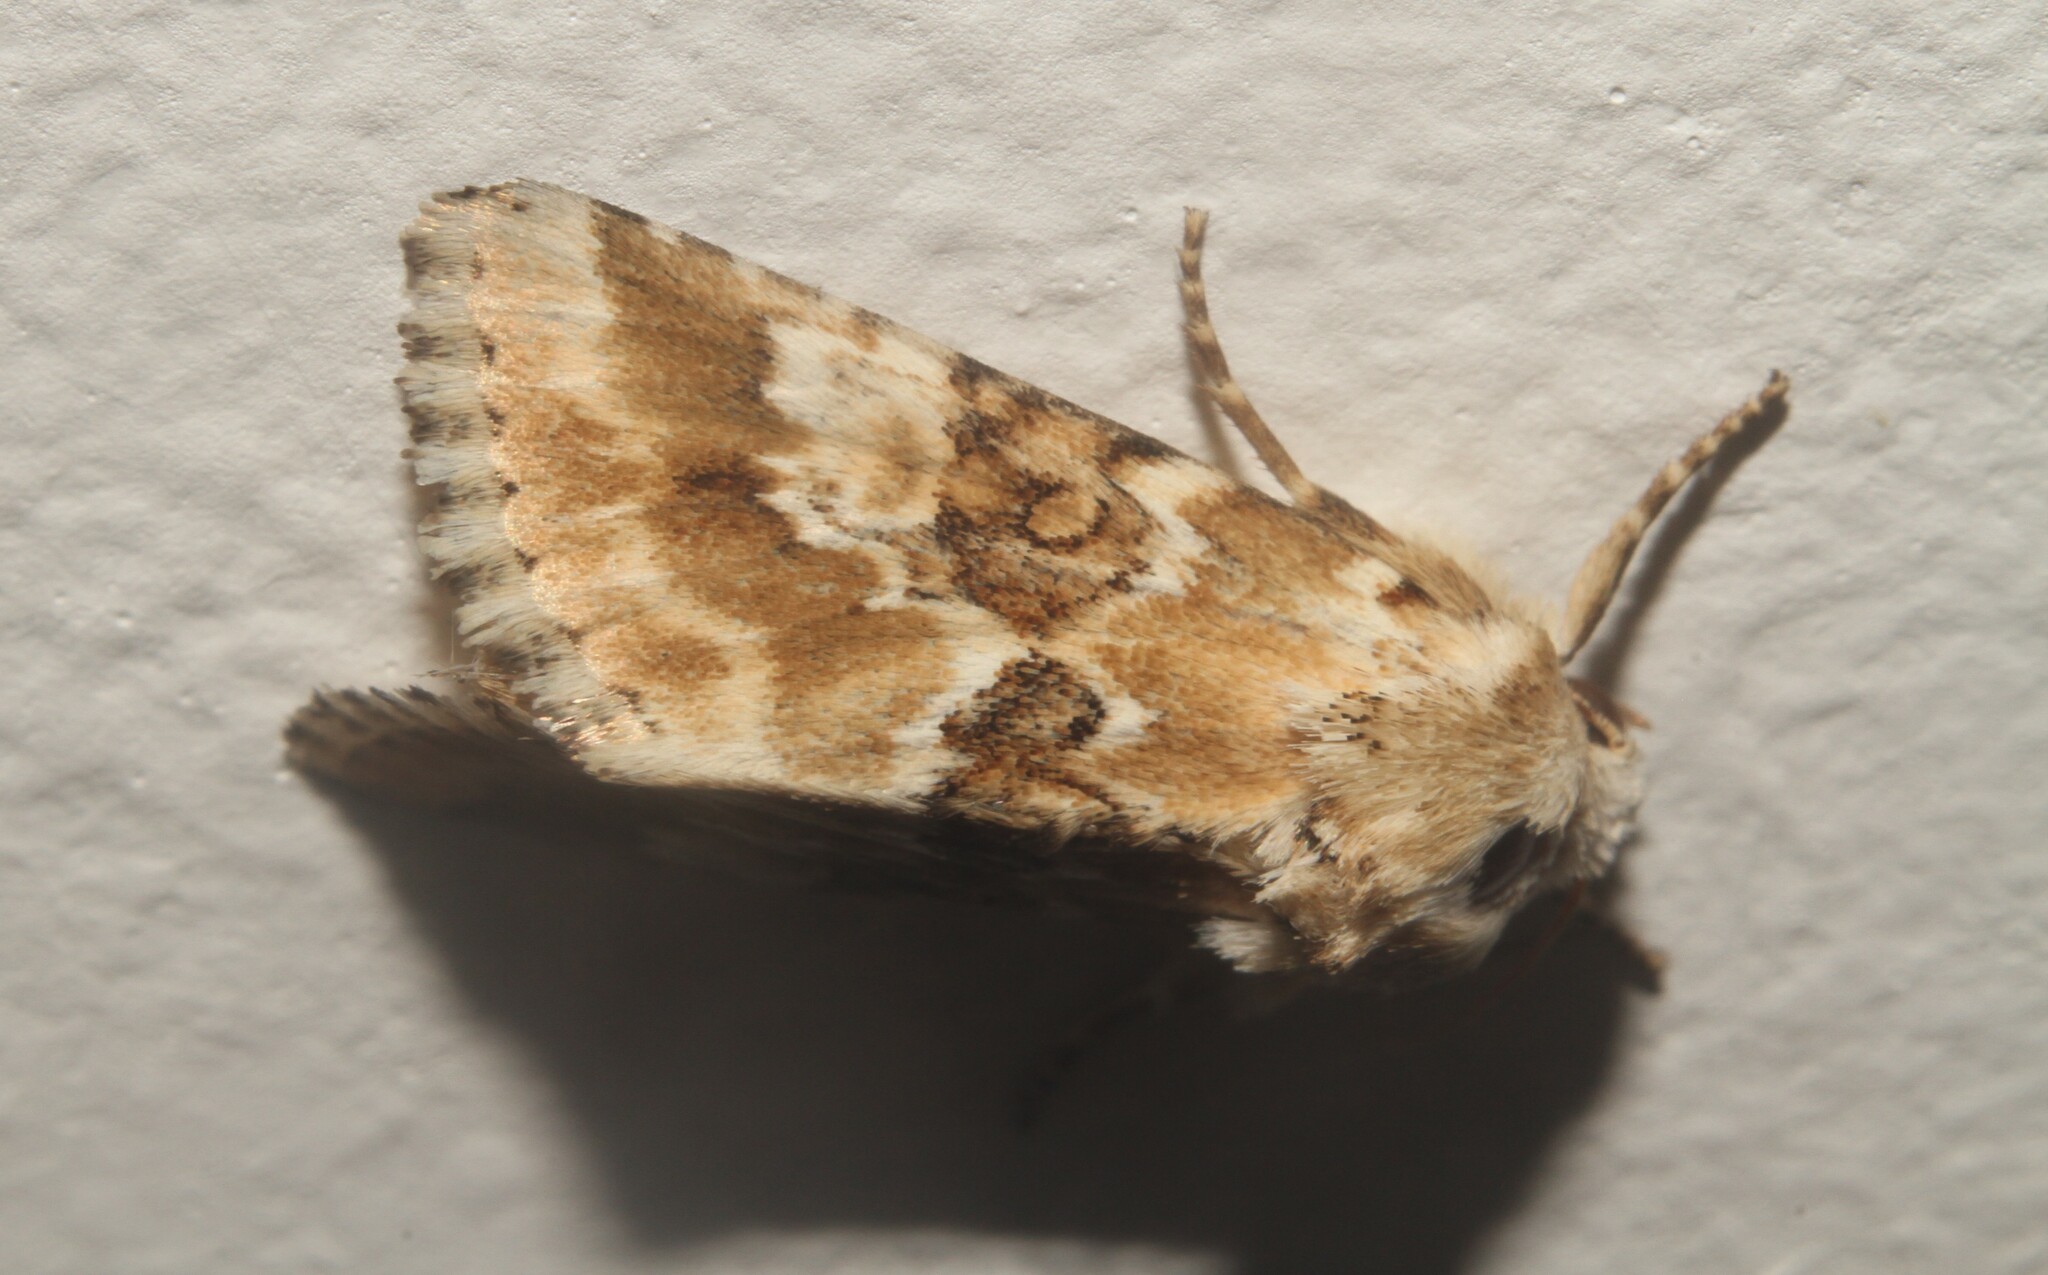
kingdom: Animalia
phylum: Arthropoda
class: Insecta
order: Lepidoptera
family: Noctuidae
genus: Eremobia
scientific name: Eremobia ochroleuca
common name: Dusky sallow
